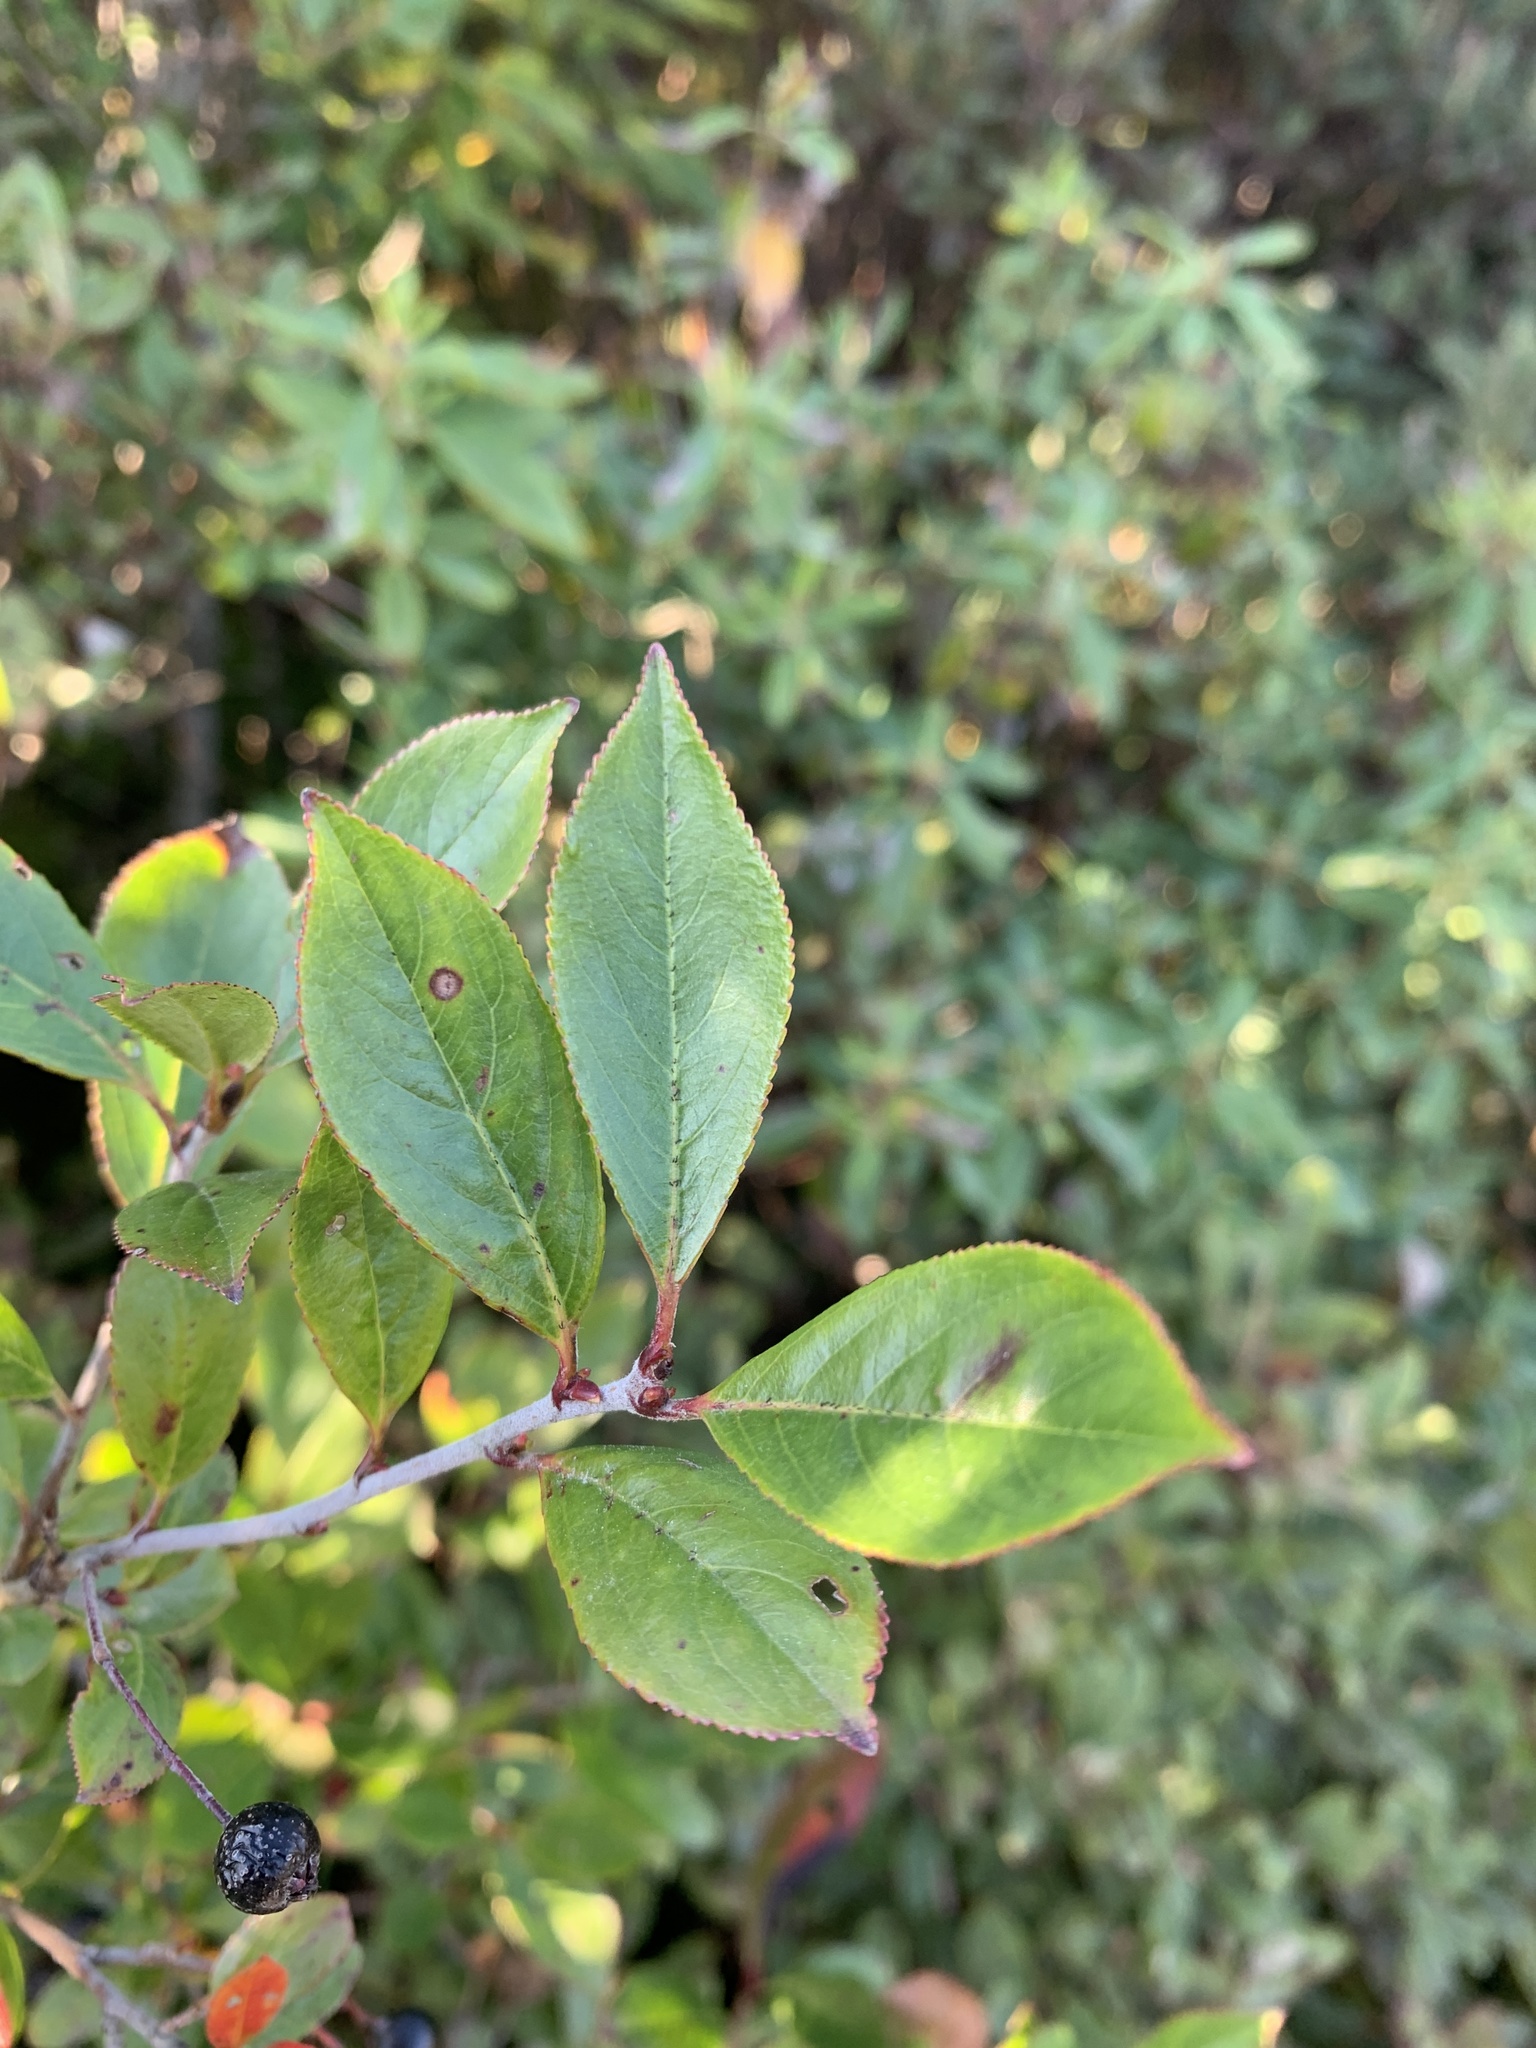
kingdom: Plantae
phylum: Tracheophyta
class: Magnoliopsida
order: Rosales
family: Rosaceae
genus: Aronia
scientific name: Aronia melanocarpa
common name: Black chokeberry
